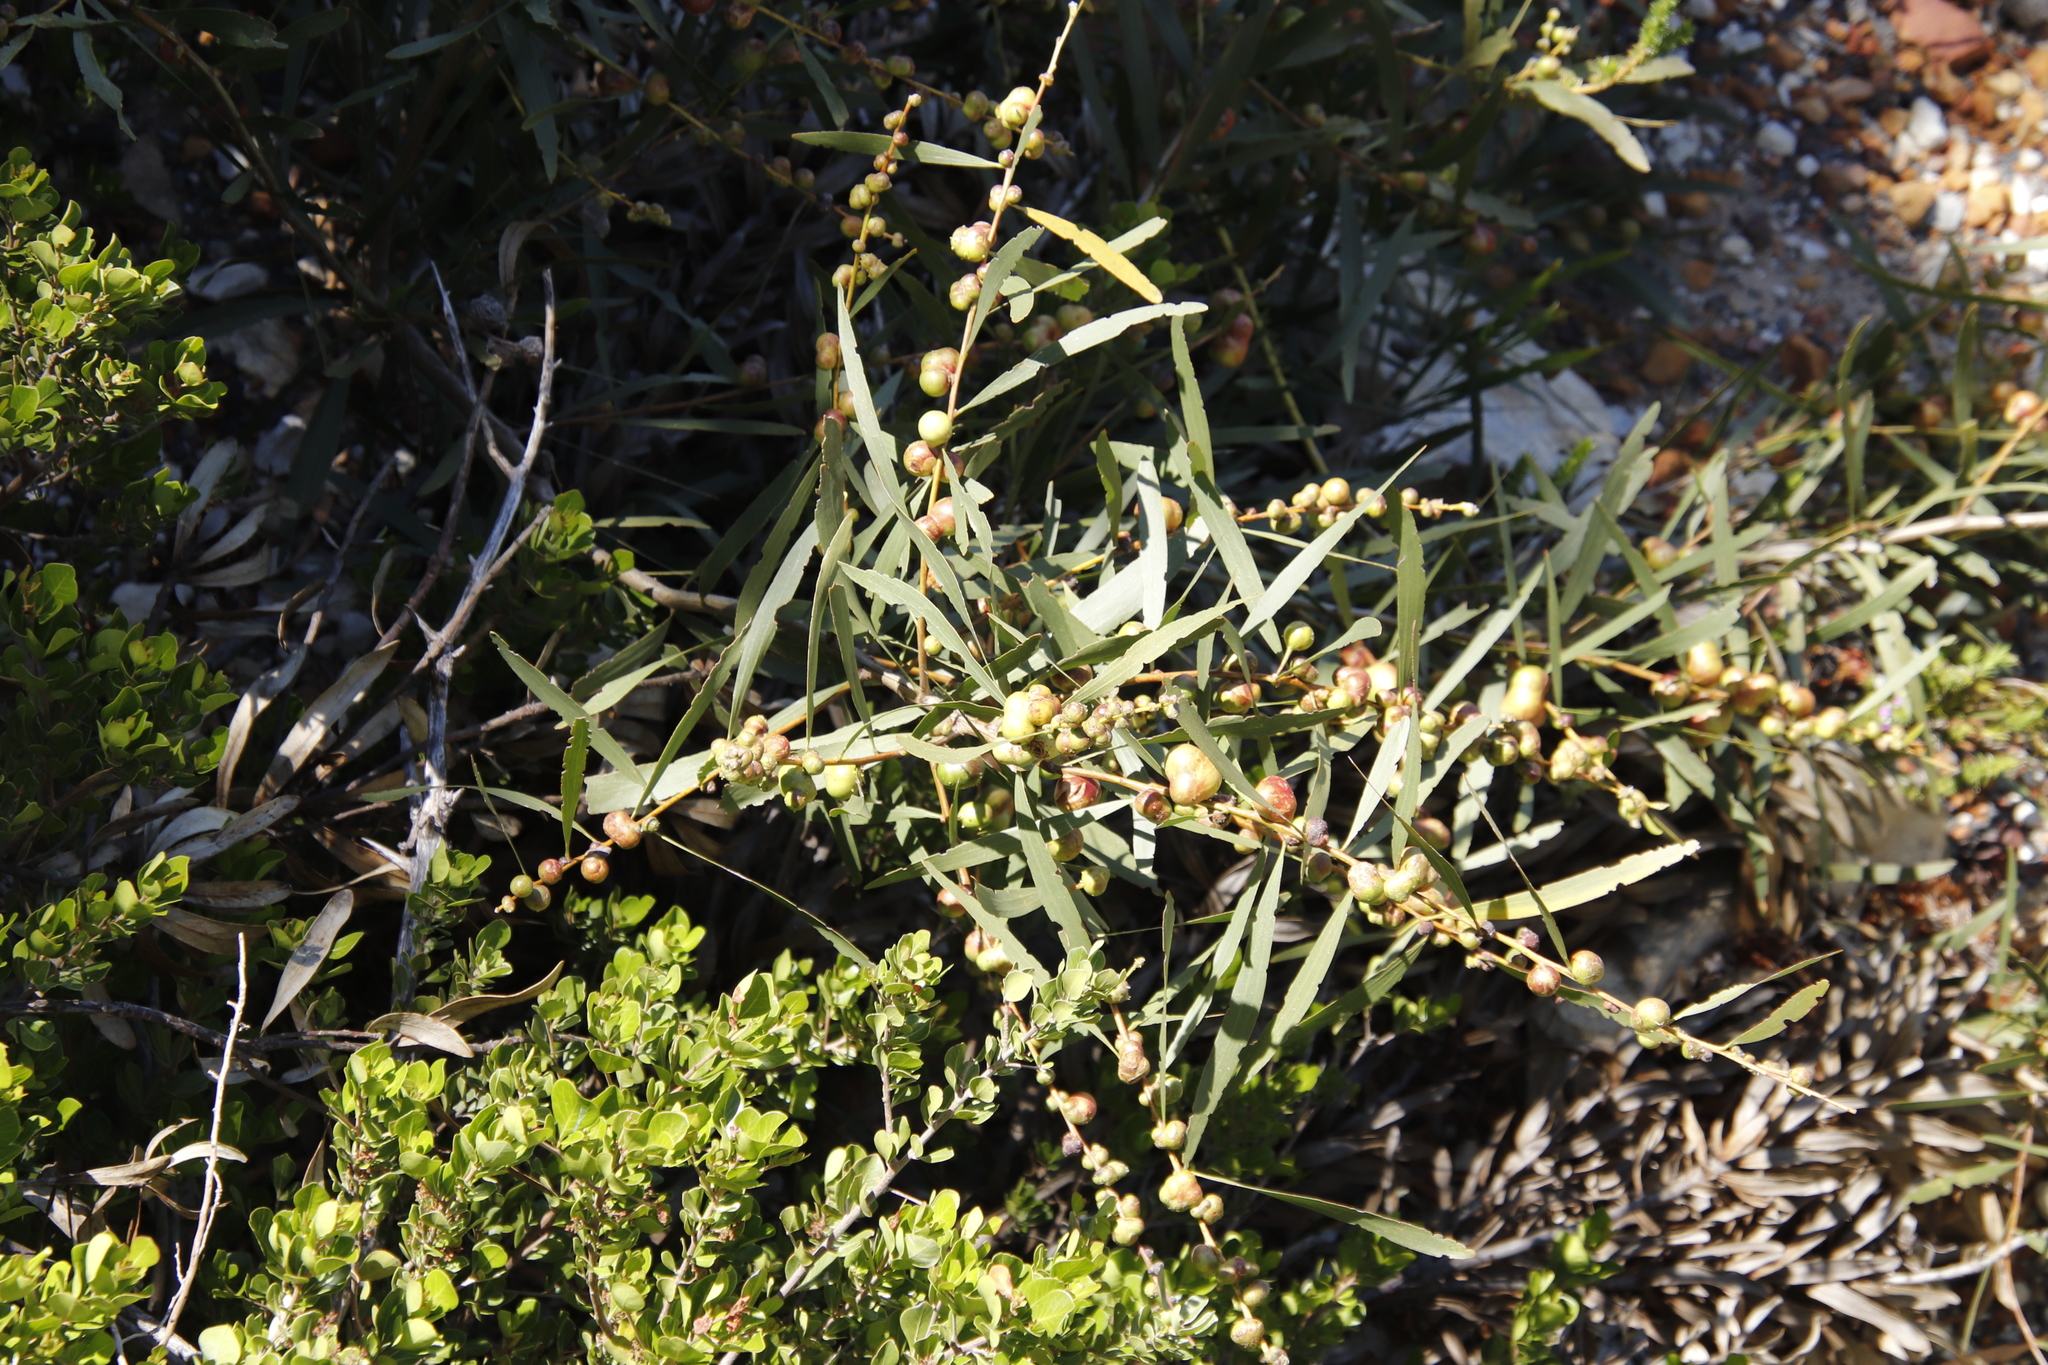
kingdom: Plantae
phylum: Tracheophyta
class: Magnoliopsida
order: Fabales
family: Fabaceae
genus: Acacia
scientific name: Acacia longifolia
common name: Sydney golden wattle
